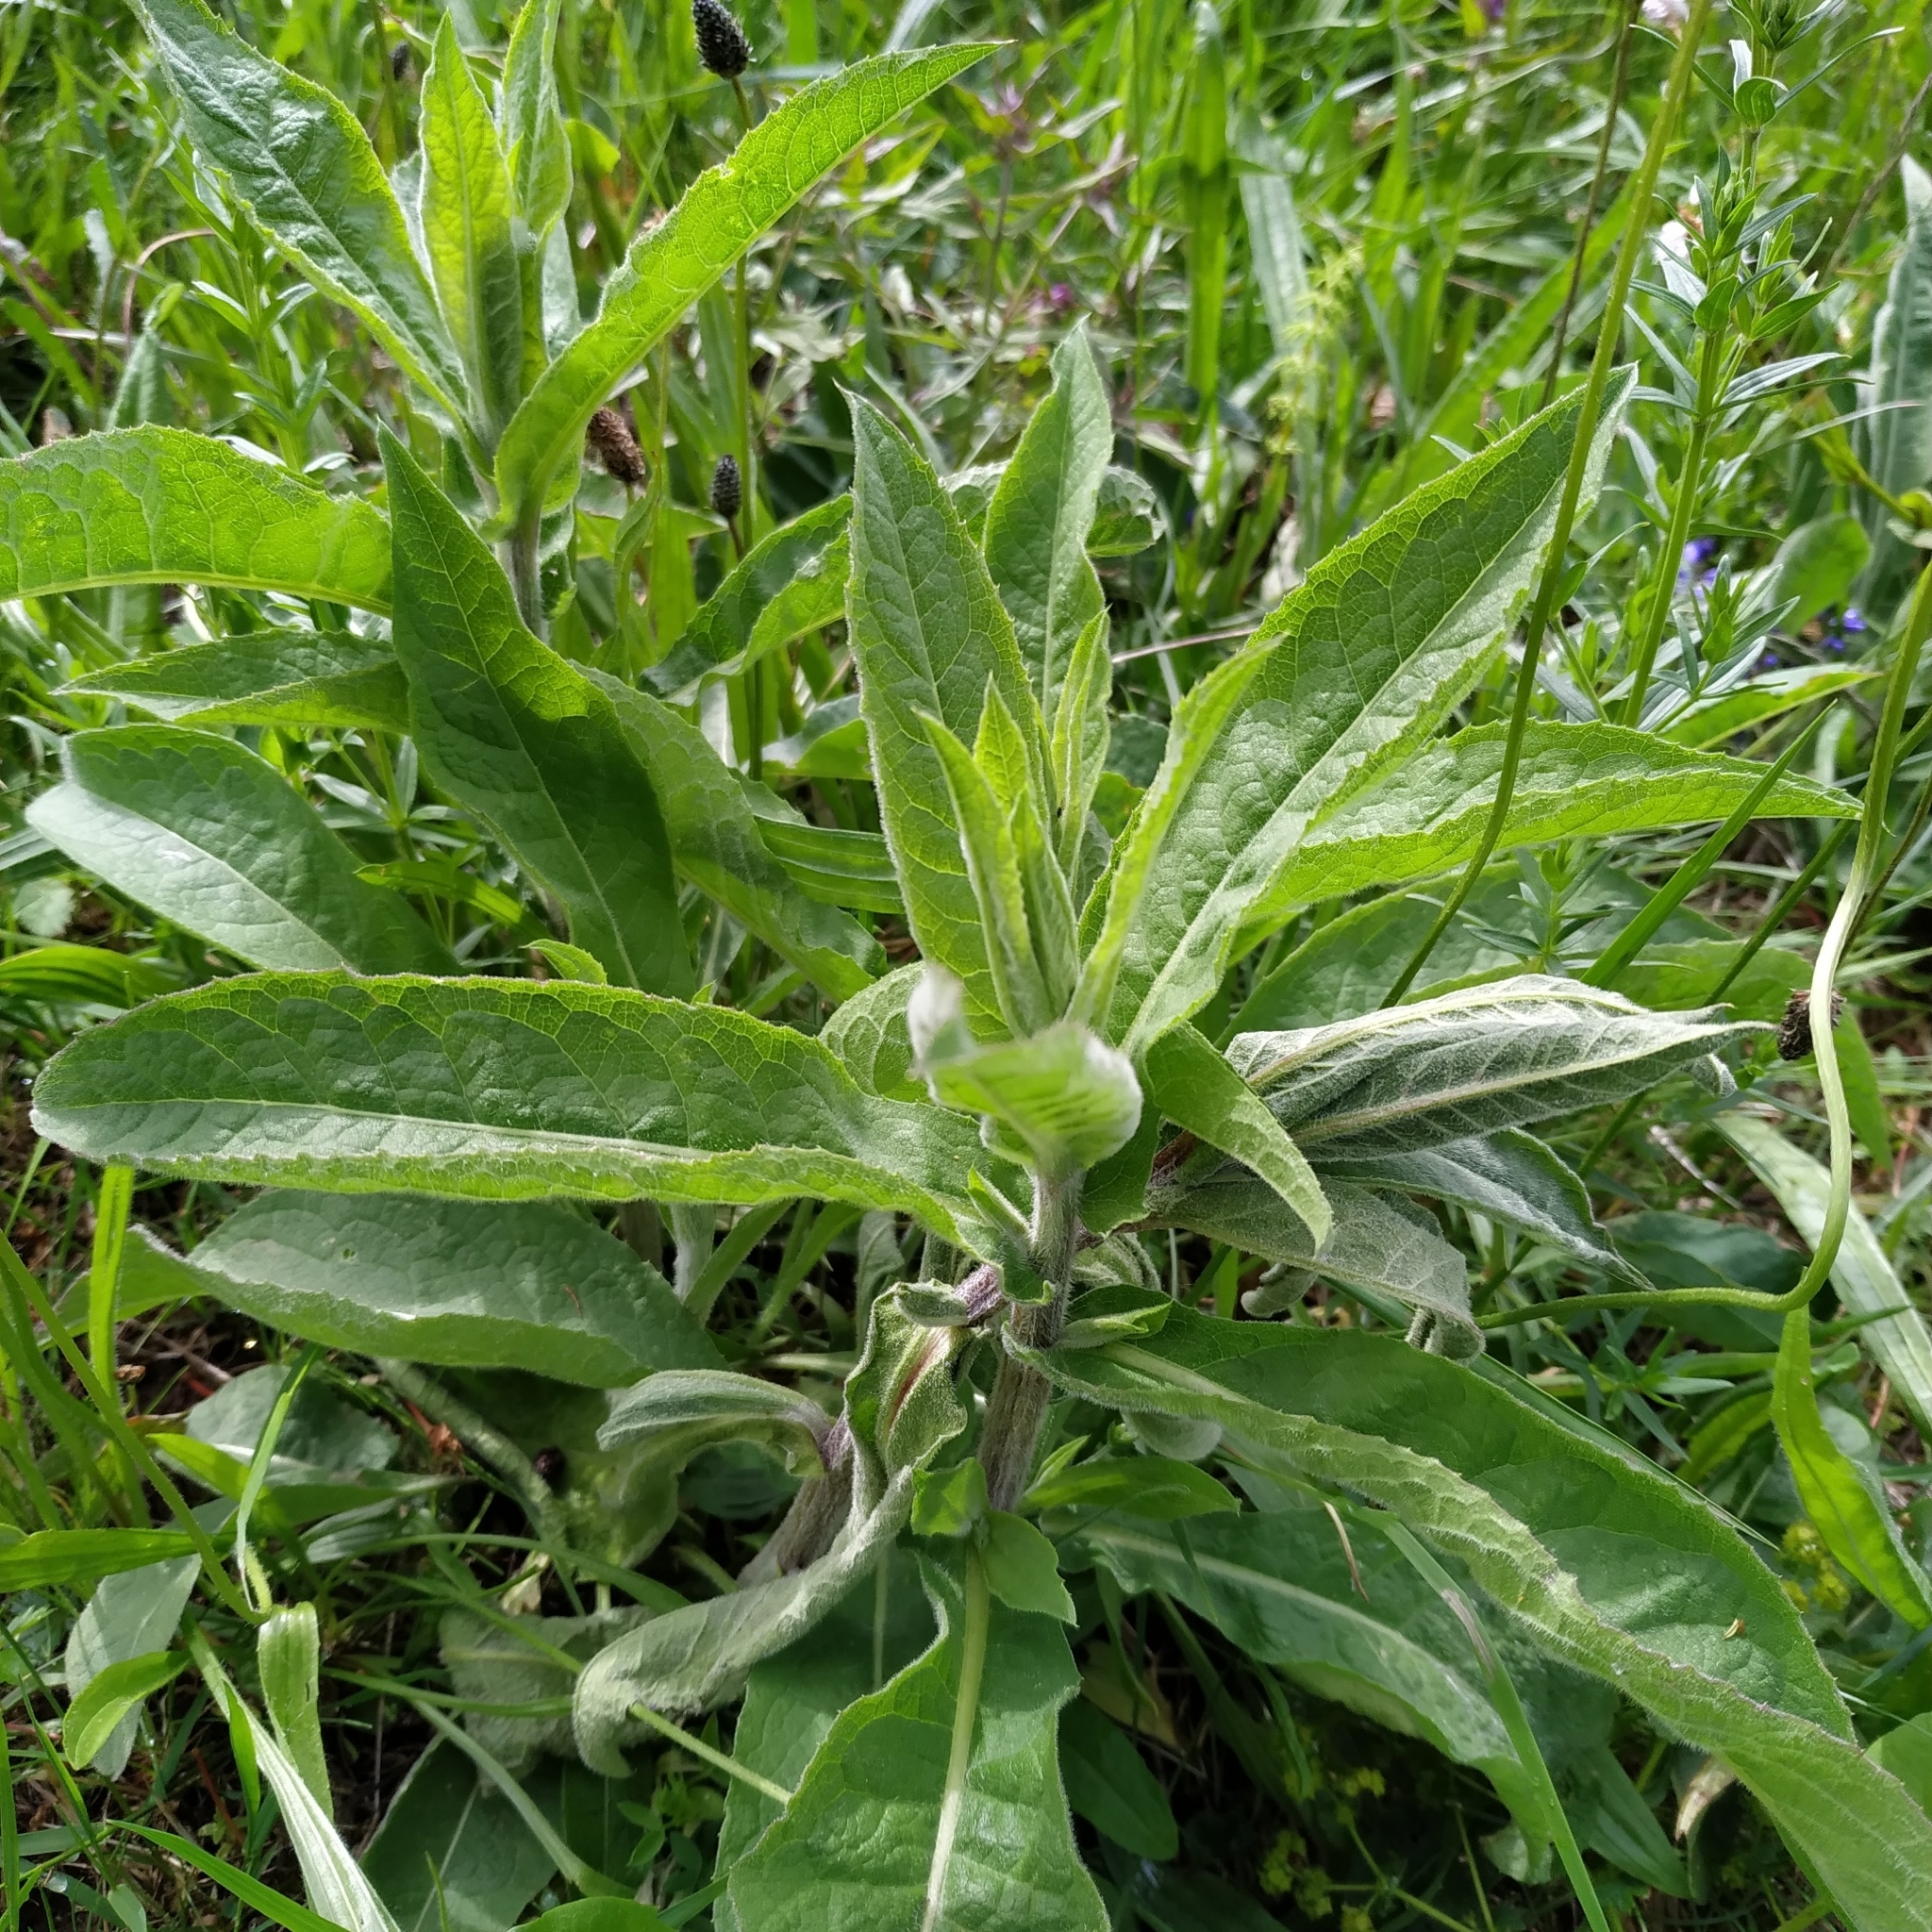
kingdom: Plantae
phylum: Tracheophyta
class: Magnoliopsida
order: Asterales
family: Asteraceae
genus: Centaurea
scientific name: Centaurea pseudophrygia
